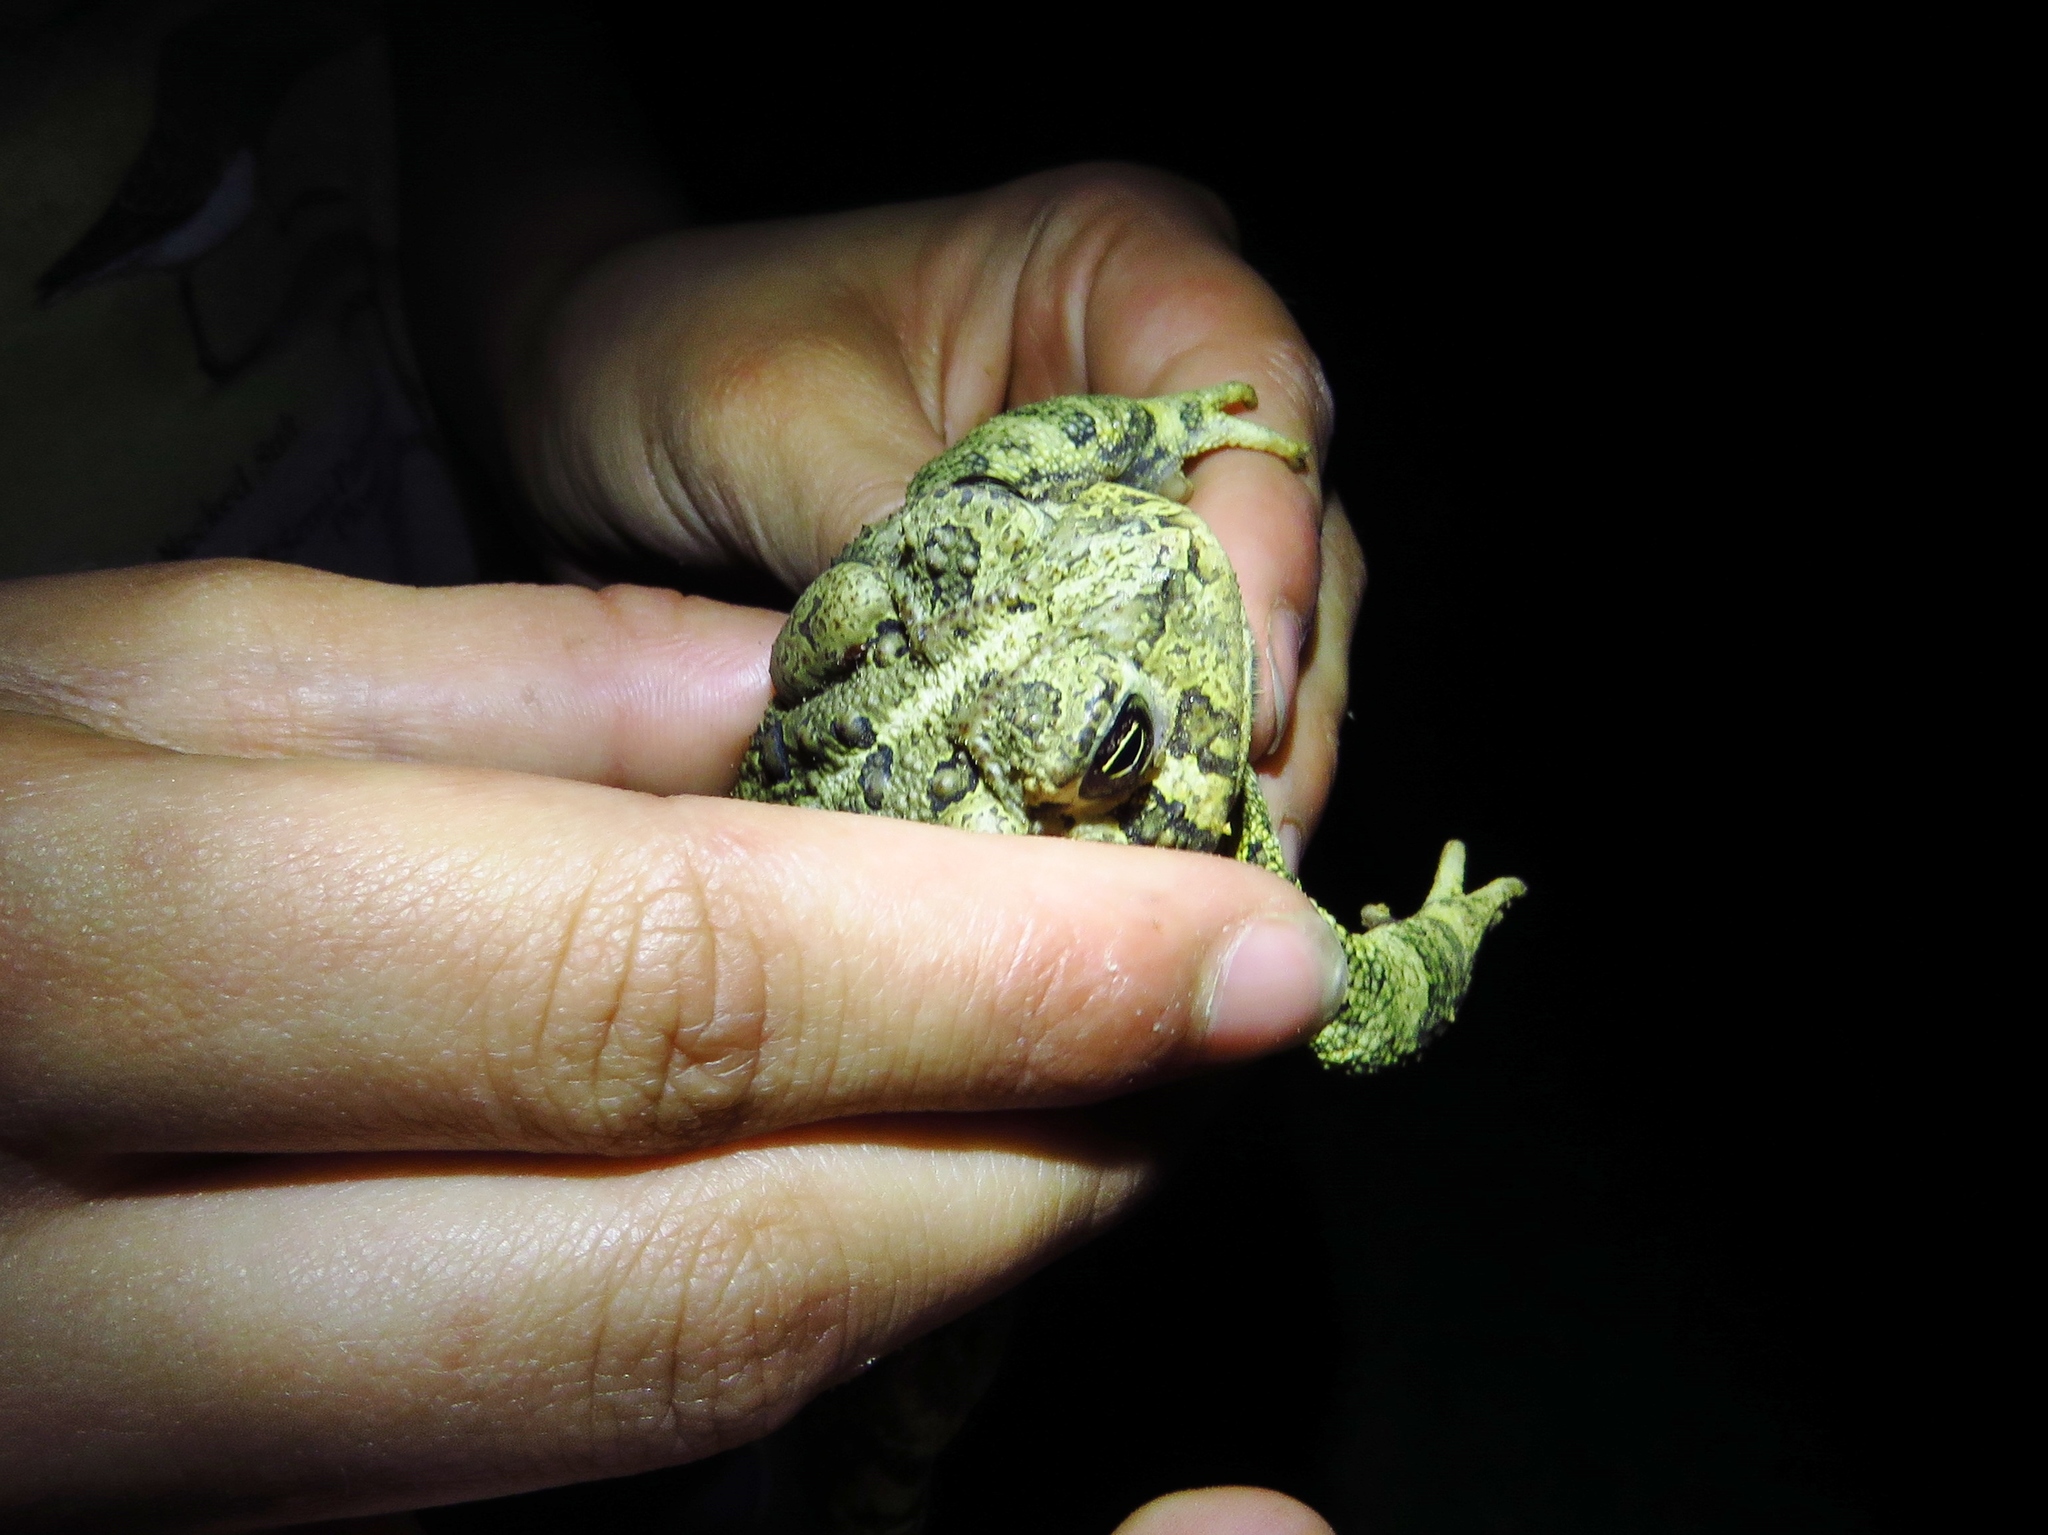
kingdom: Animalia
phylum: Chordata
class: Amphibia
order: Anura
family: Bufonidae
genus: Anaxyrus
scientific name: Anaxyrus woodhousii
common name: Woodhouse's toad
